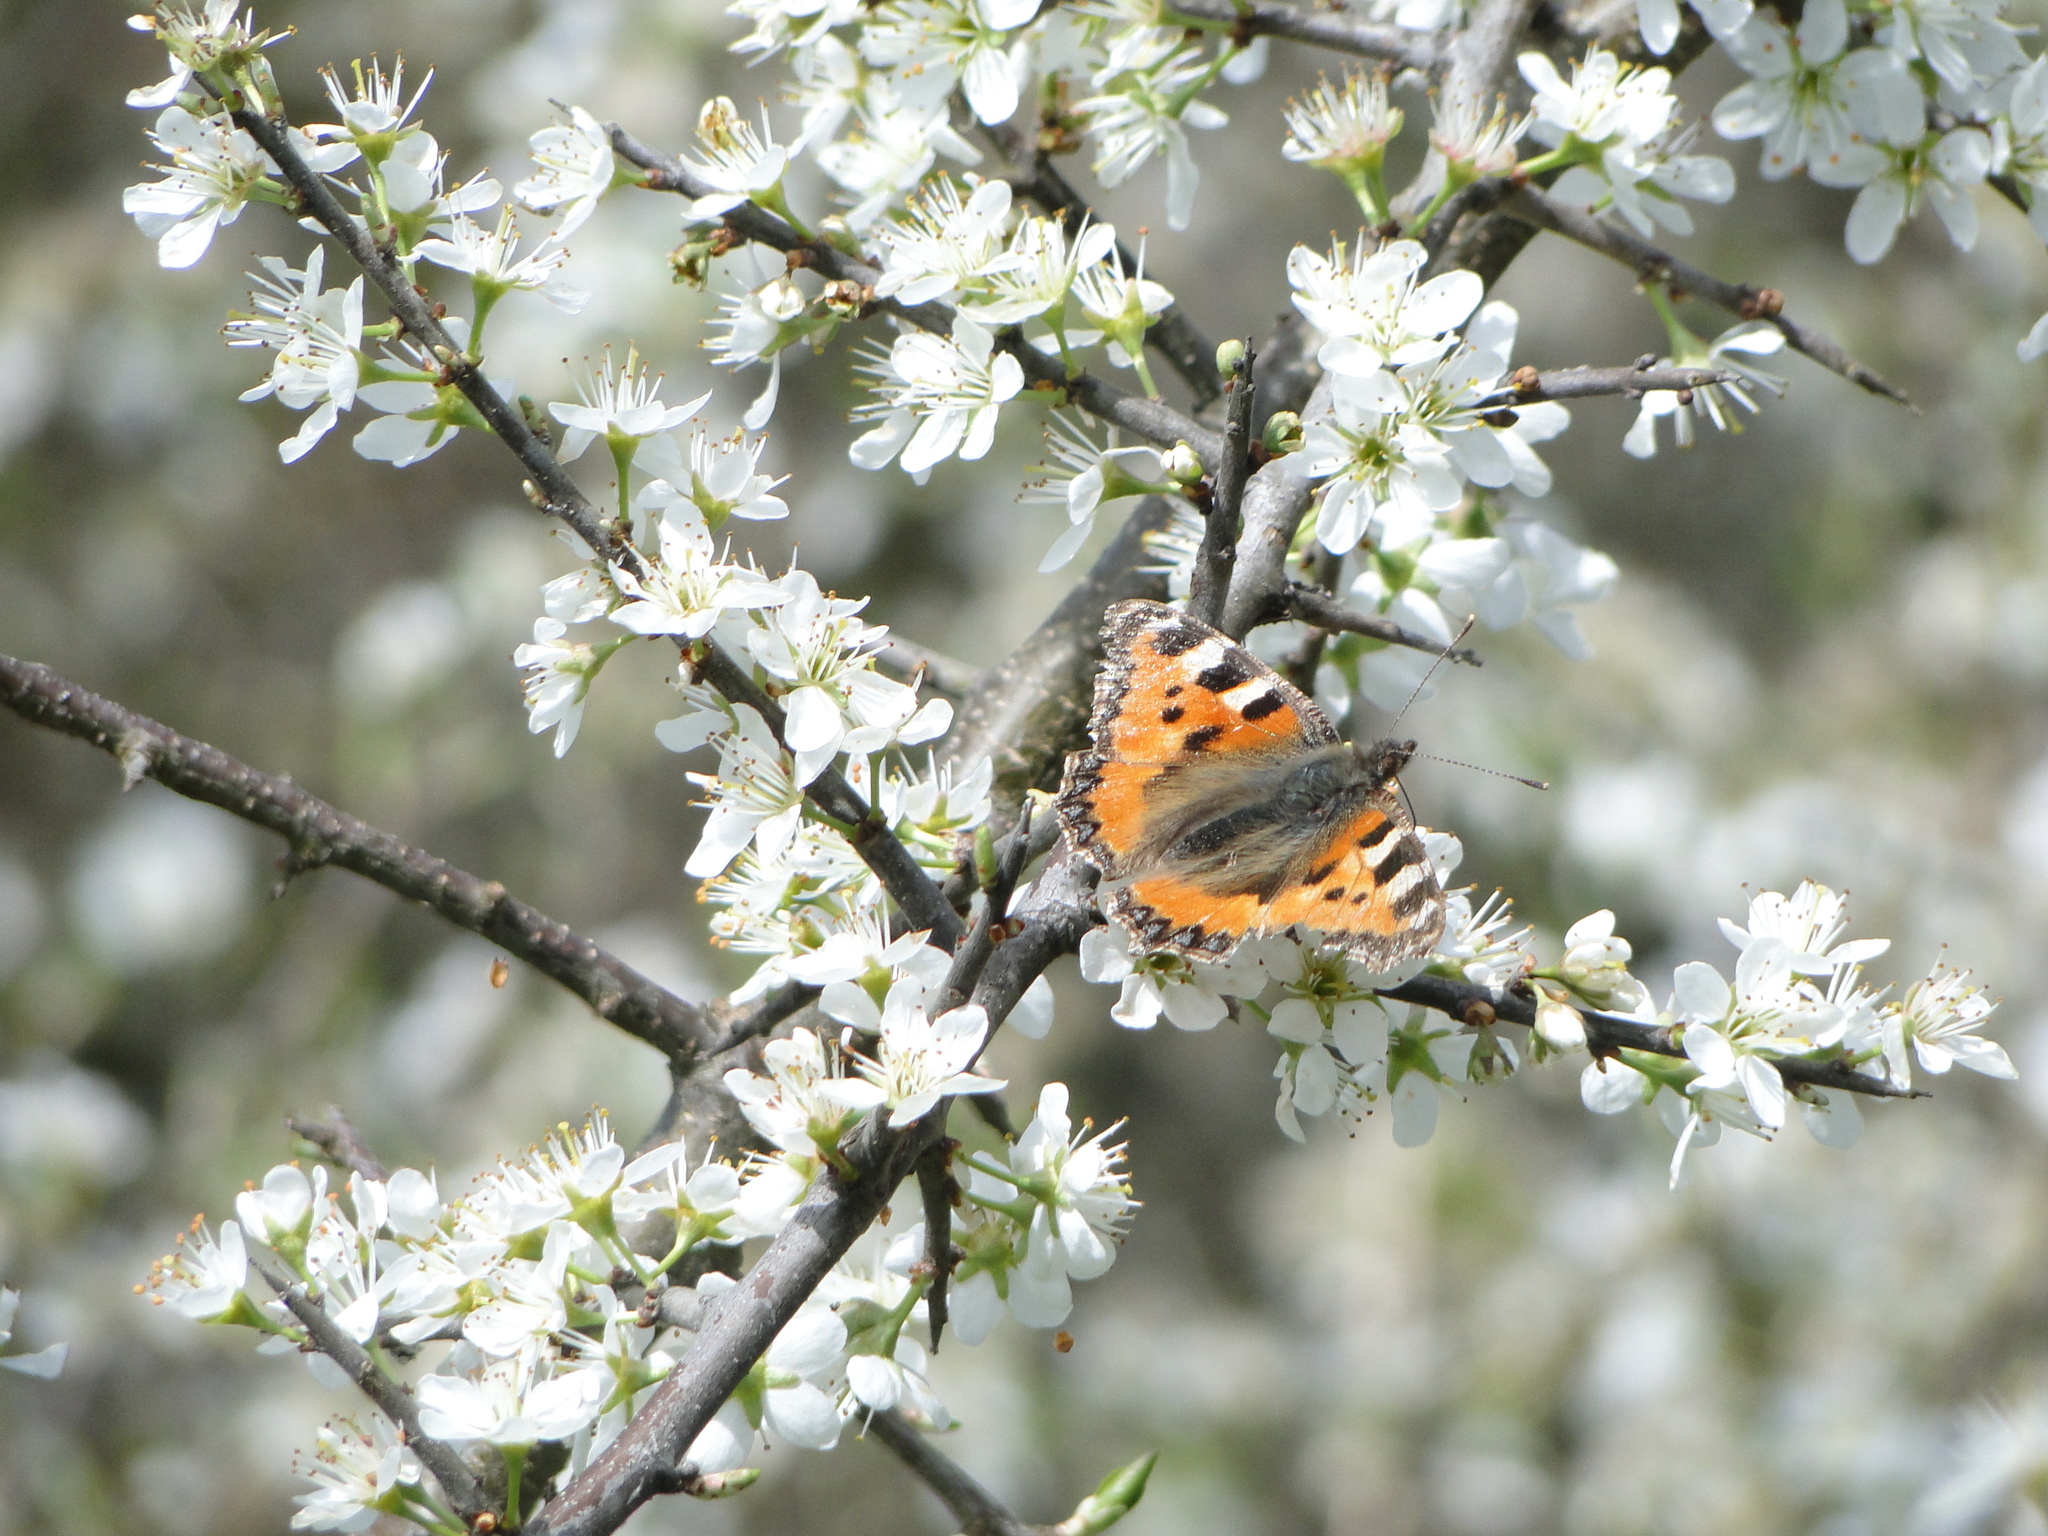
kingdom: Animalia
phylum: Arthropoda
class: Insecta
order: Lepidoptera
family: Nymphalidae
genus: Aglais
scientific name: Aglais urticae
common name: Small tortoiseshell
